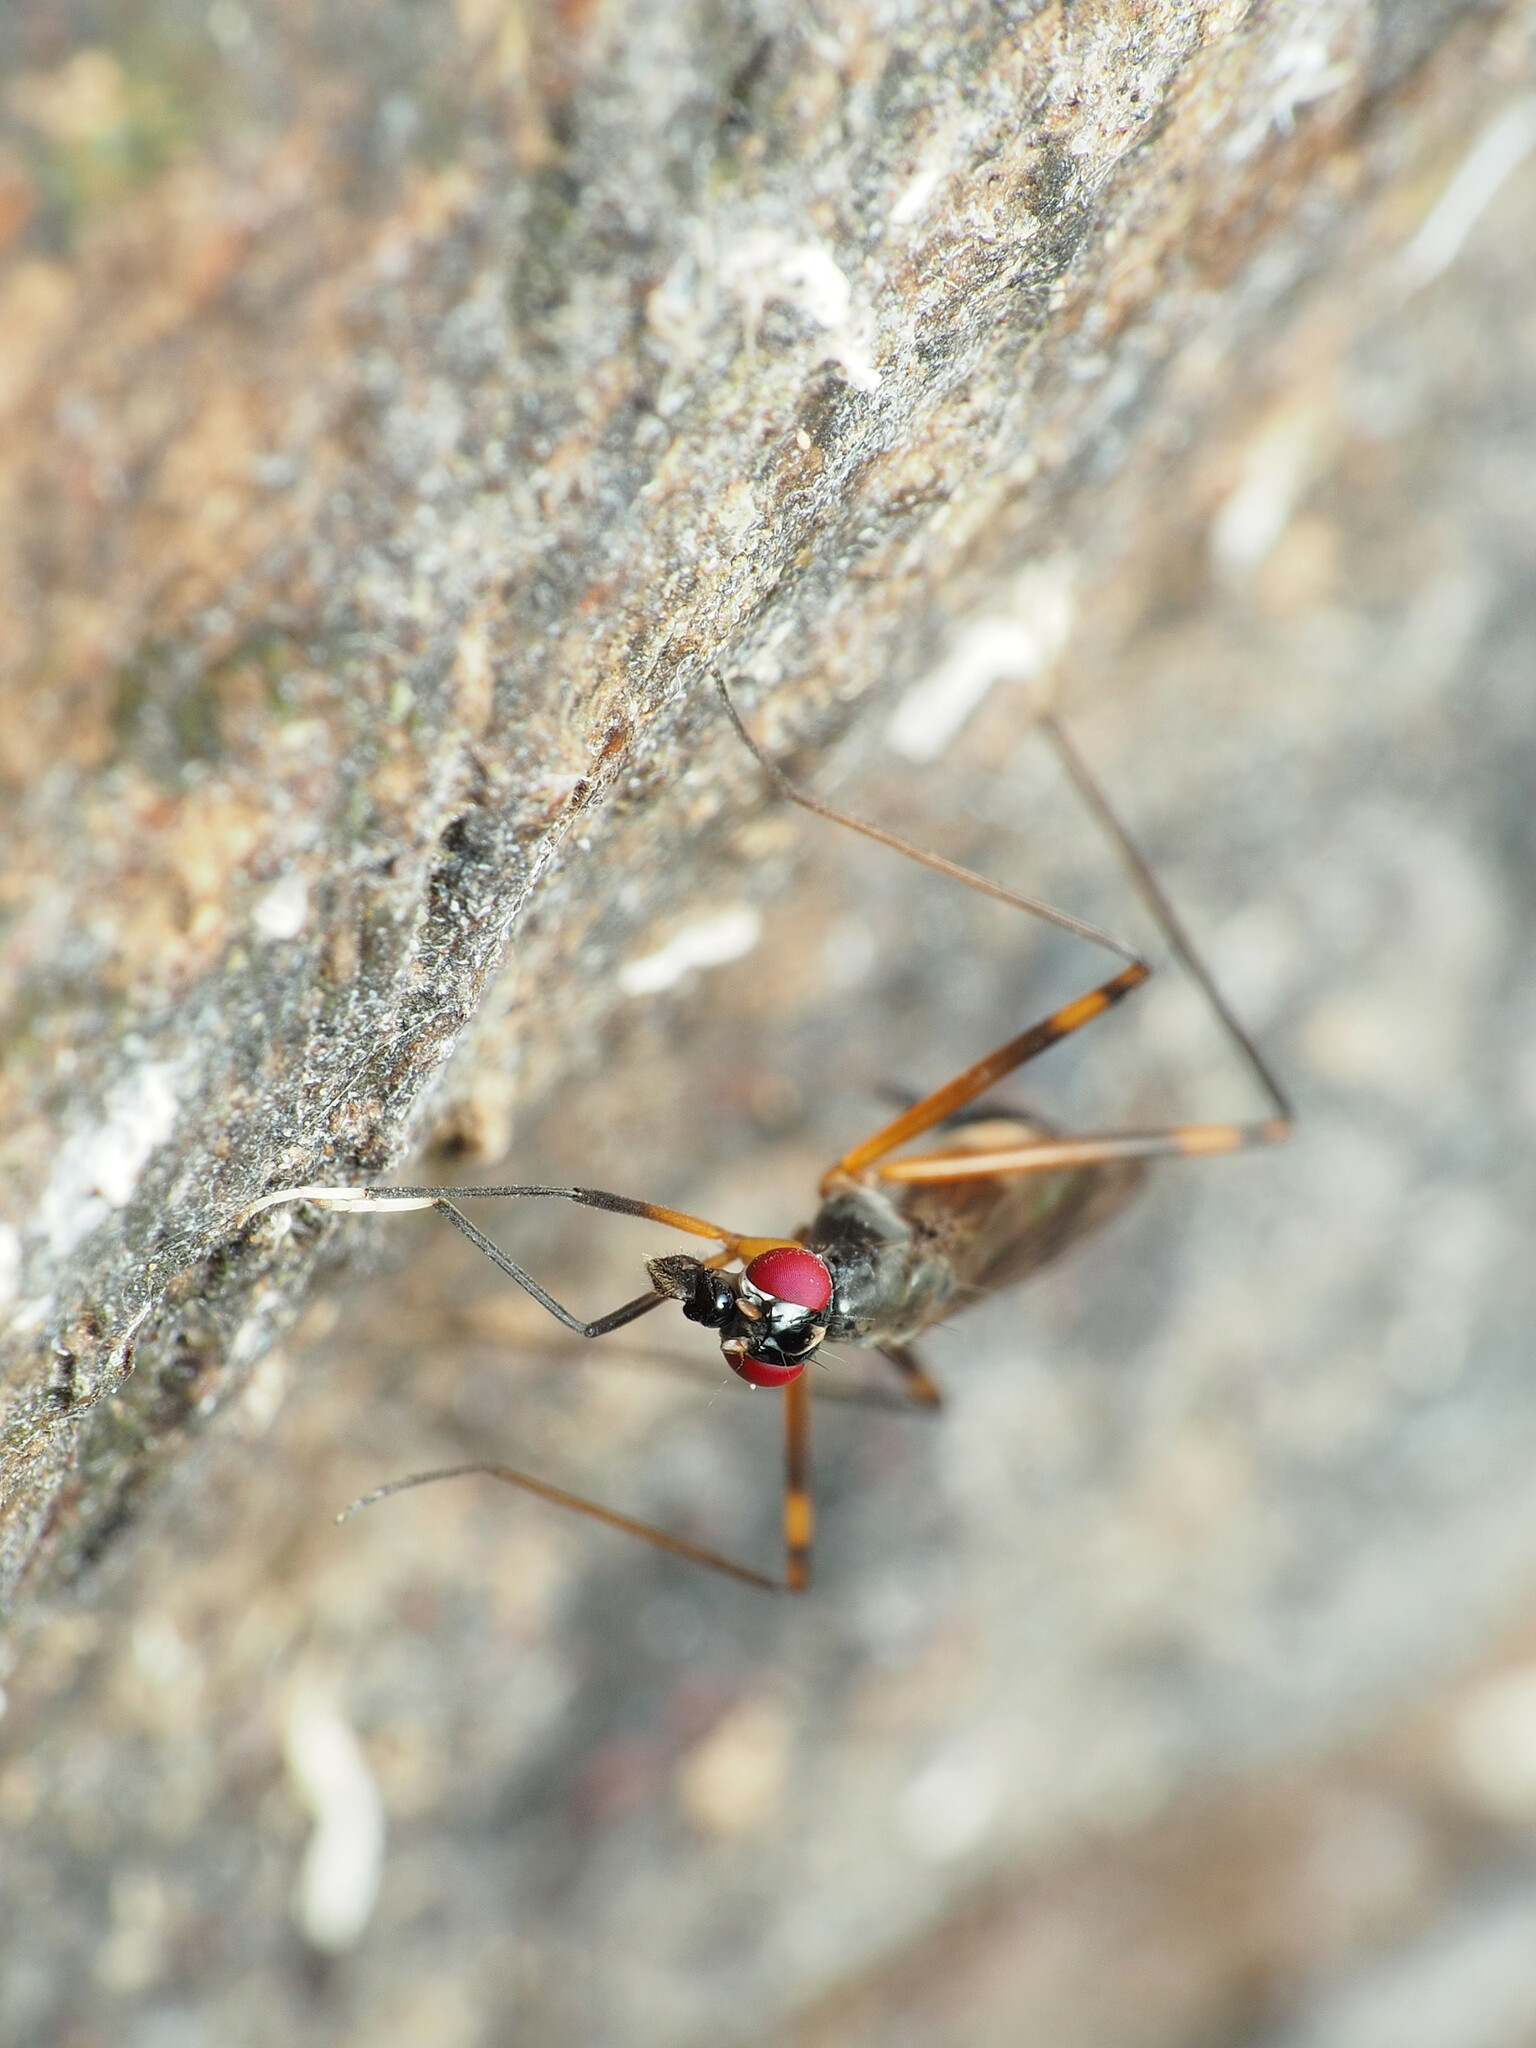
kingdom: Animalia
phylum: Arthropoda
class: Insecta
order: Diptera
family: Micropezidae
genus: Rainieria
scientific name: Rainieria antennaepes
